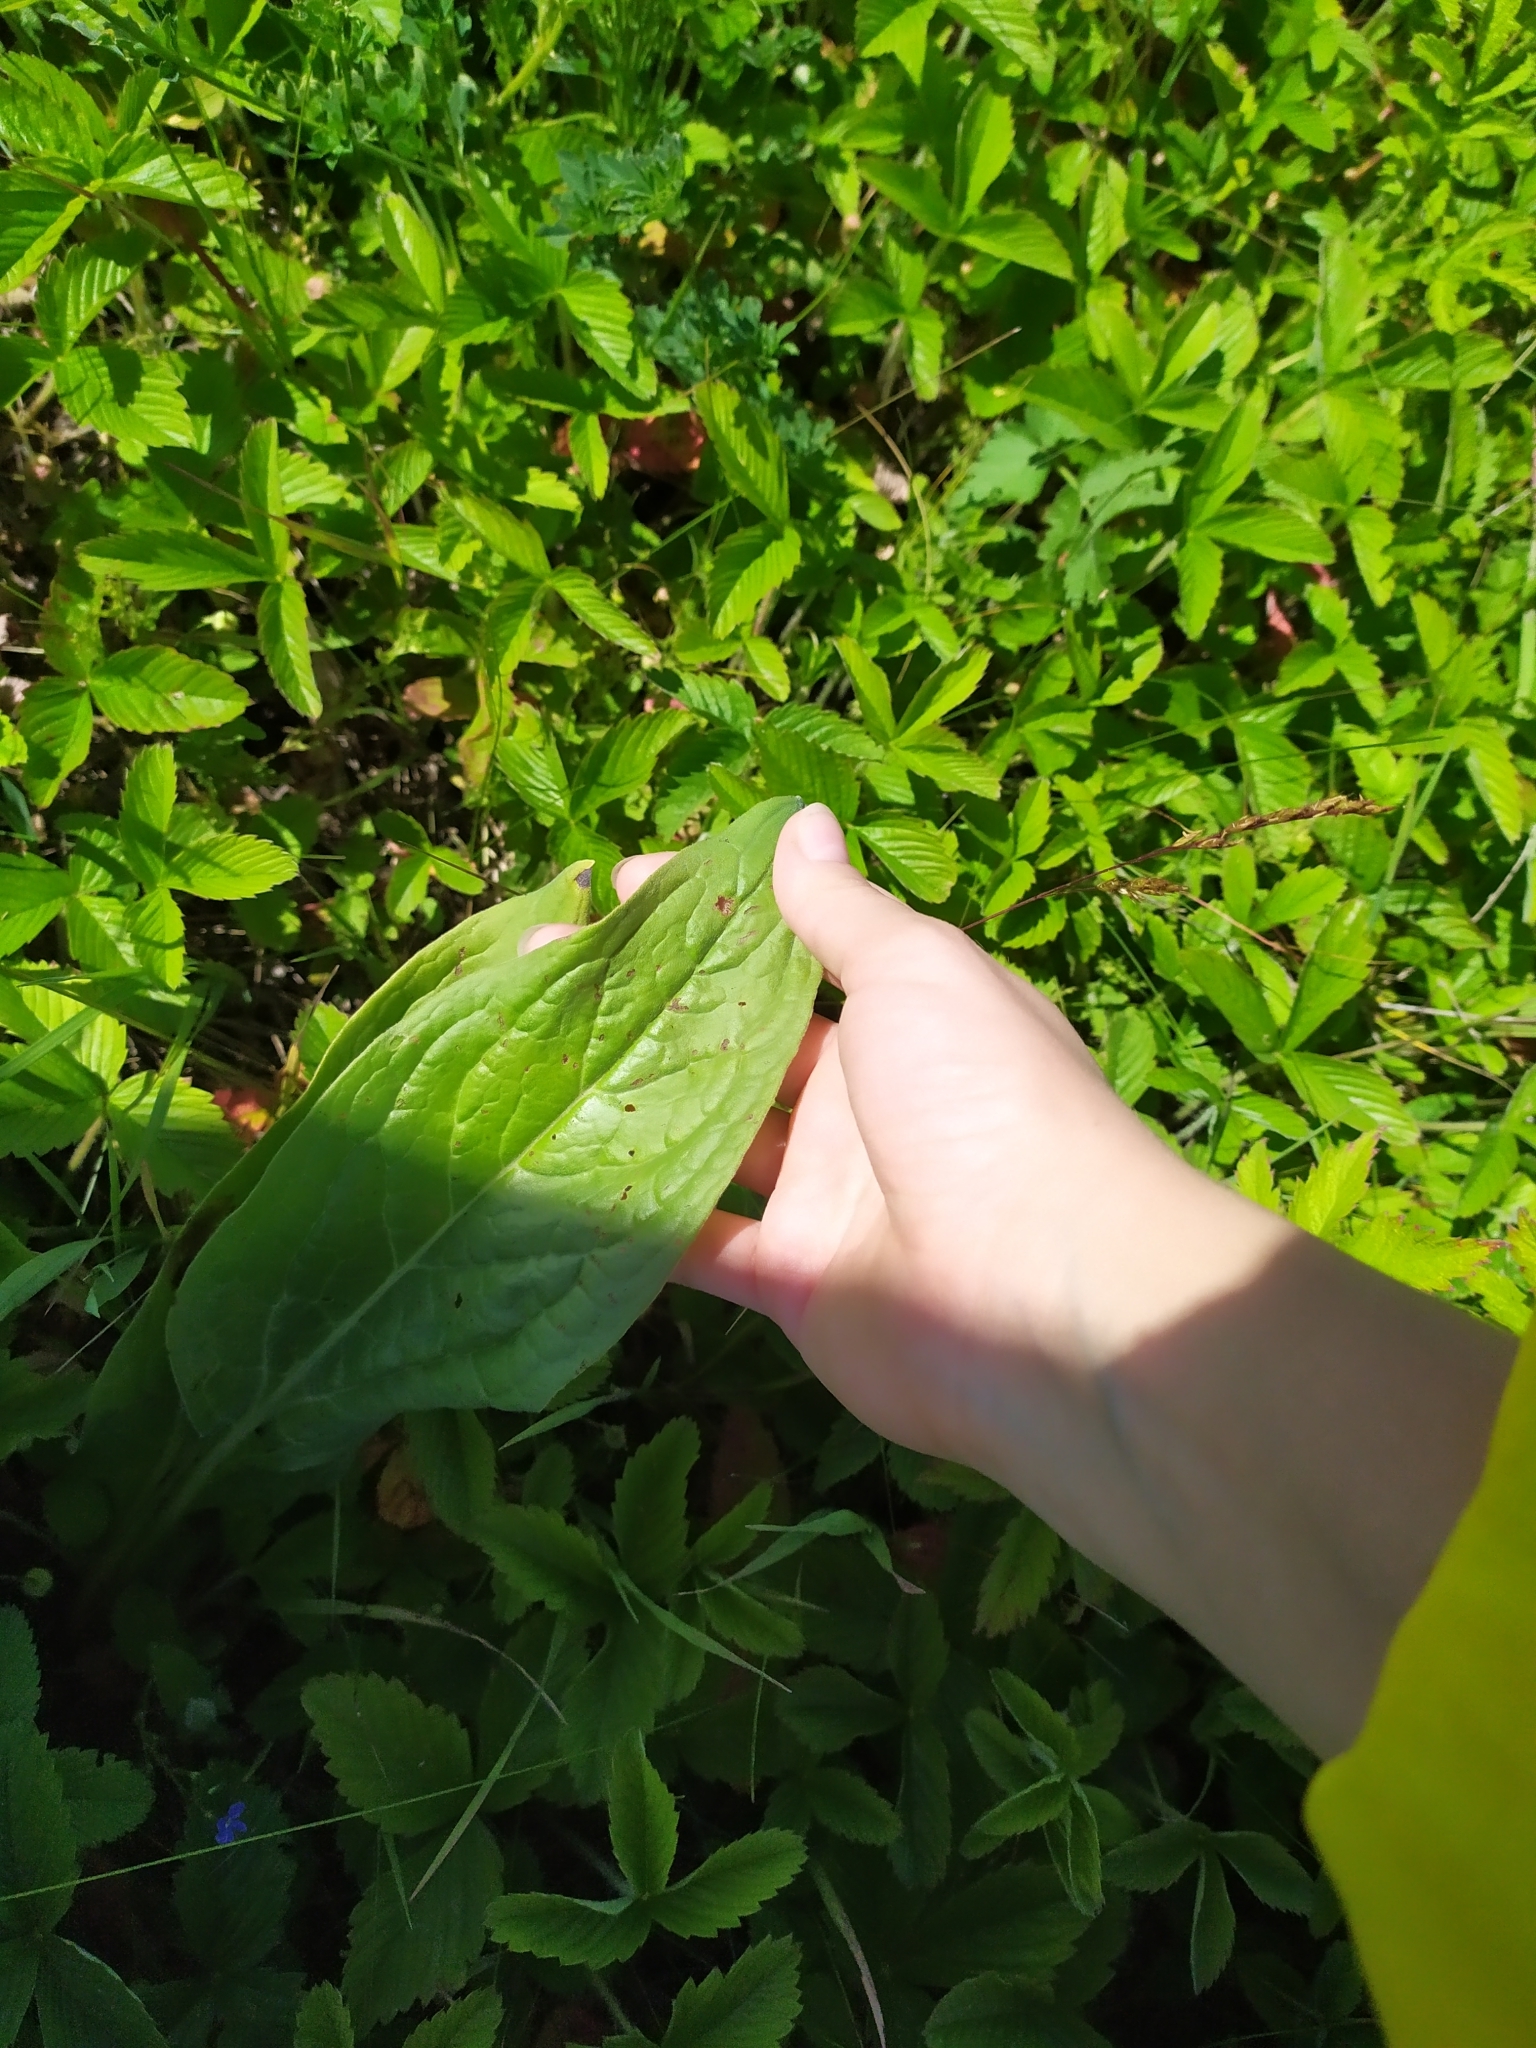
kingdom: Plantae
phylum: Tracheophyta
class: Magnoliopsida
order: Boraginales
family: Boraginaceae
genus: Cynoglossum
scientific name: Cynoglossum officinale
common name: Hound's-tongue
